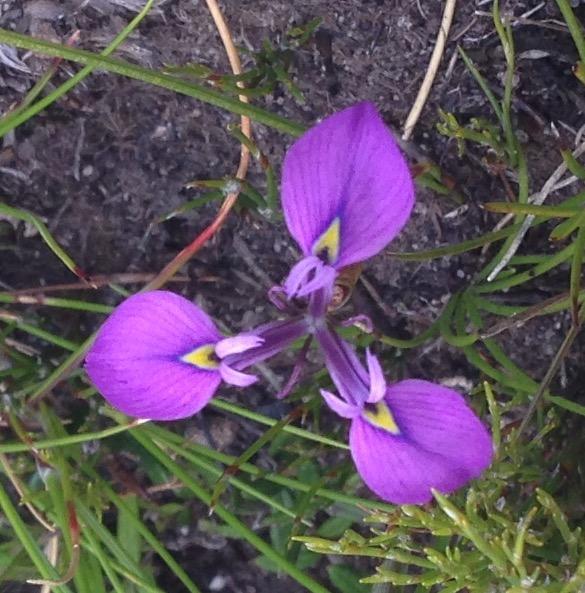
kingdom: Plantae
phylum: Tracheophyta
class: Liliopsida
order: Asparagales
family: Iridaceae
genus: Moraea
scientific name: Moraea tripetala
